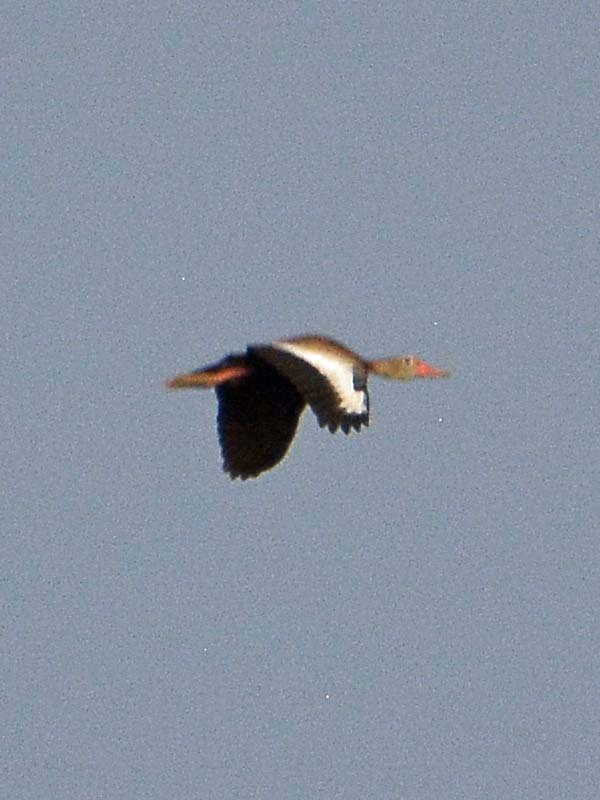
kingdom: Animalia
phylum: Chordata
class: Aves
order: Anseriformes
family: Anatidae
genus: Dendrocygna
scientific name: Dendrocygna autumnalis
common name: Black-bellied whistling duck
